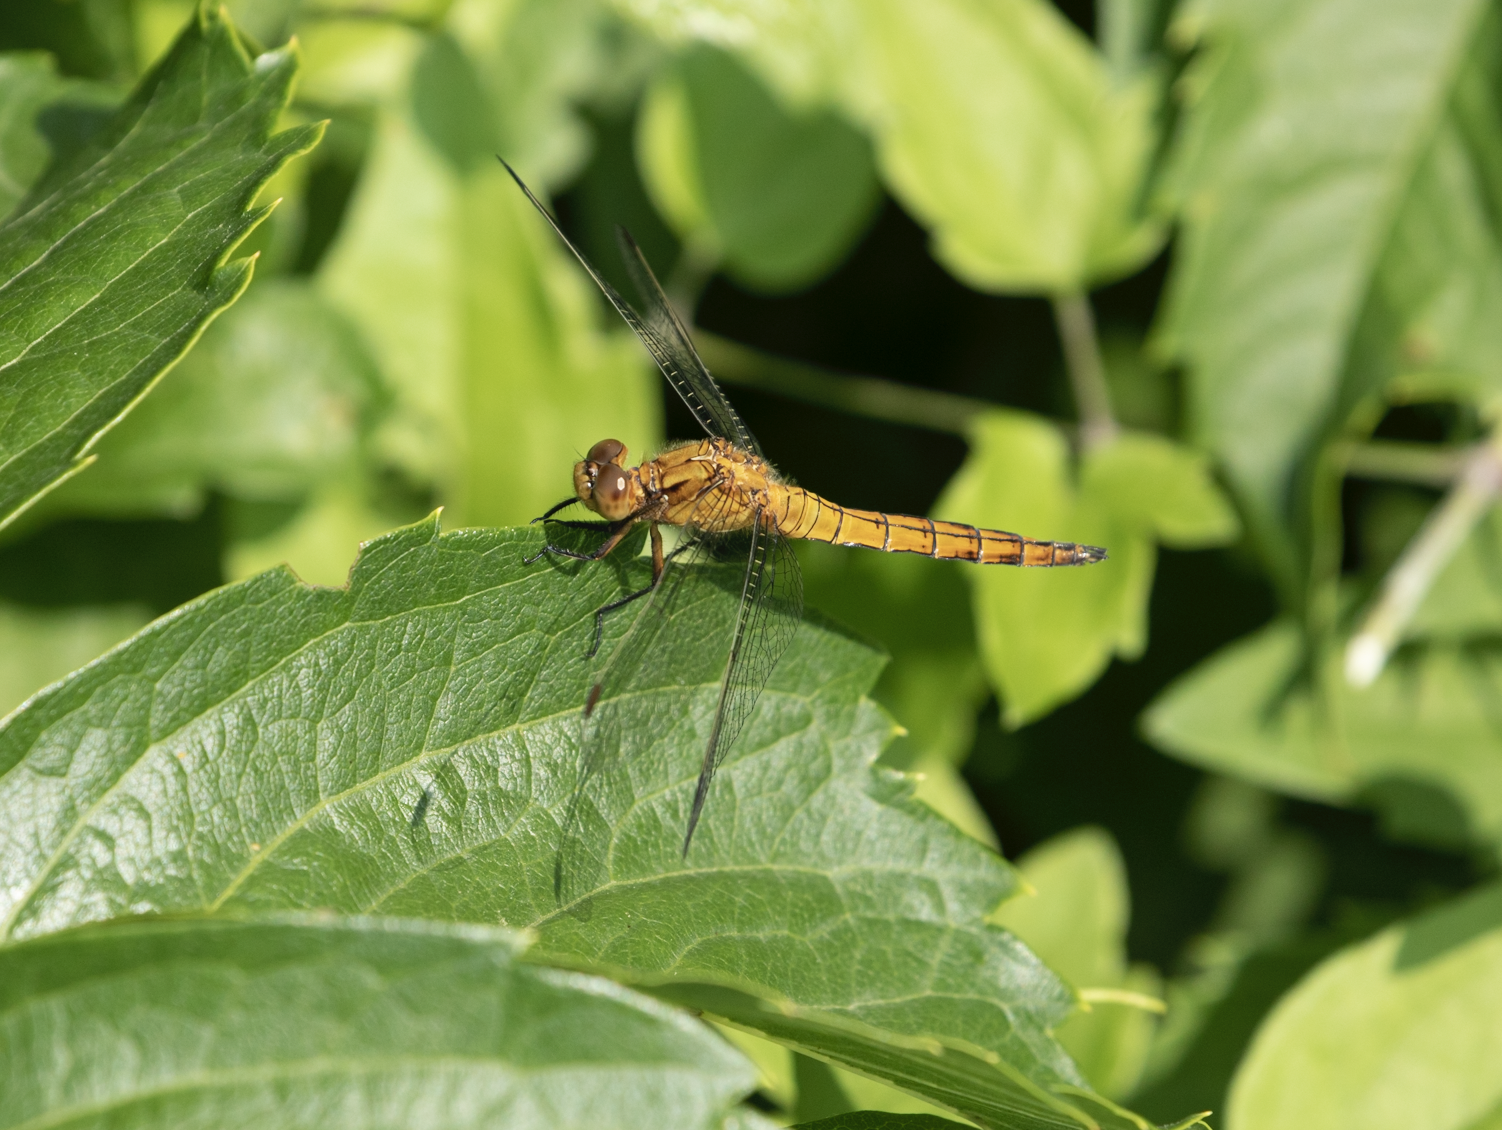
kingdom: Animalia
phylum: Arthropoda
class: Insecta
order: Odonata
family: Libellulidae
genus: Orthetrum
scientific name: Orthetrum coerulescens
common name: Keeled skimmer
